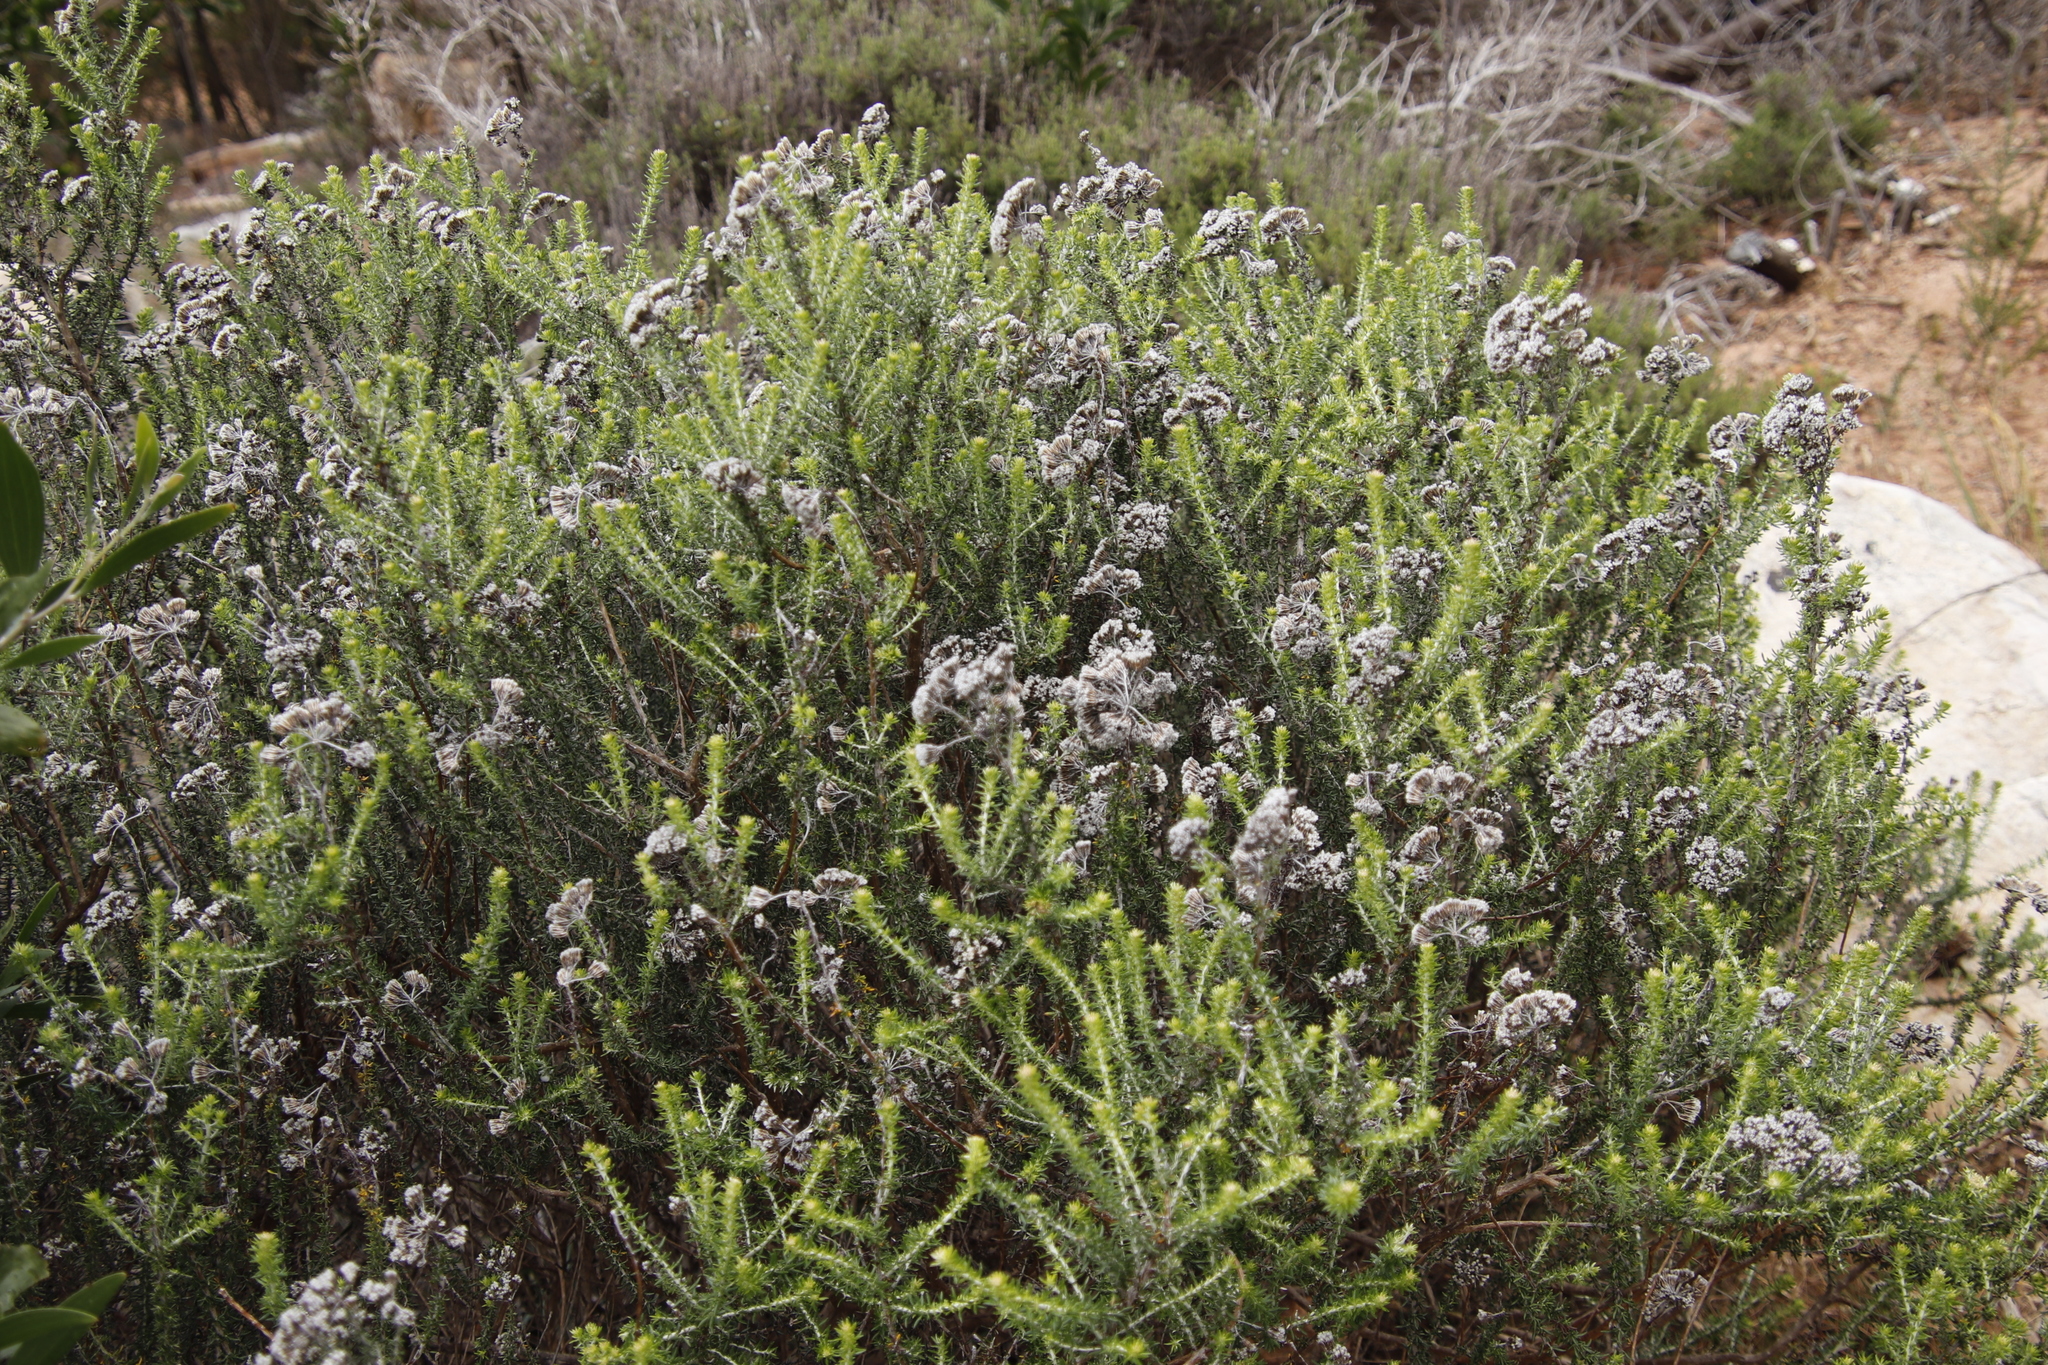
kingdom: Plantae
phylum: Tracheophyta
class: Magnoliopsida
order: Asterales
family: Asteraceae
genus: Metalasia
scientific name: Metalasia densa
